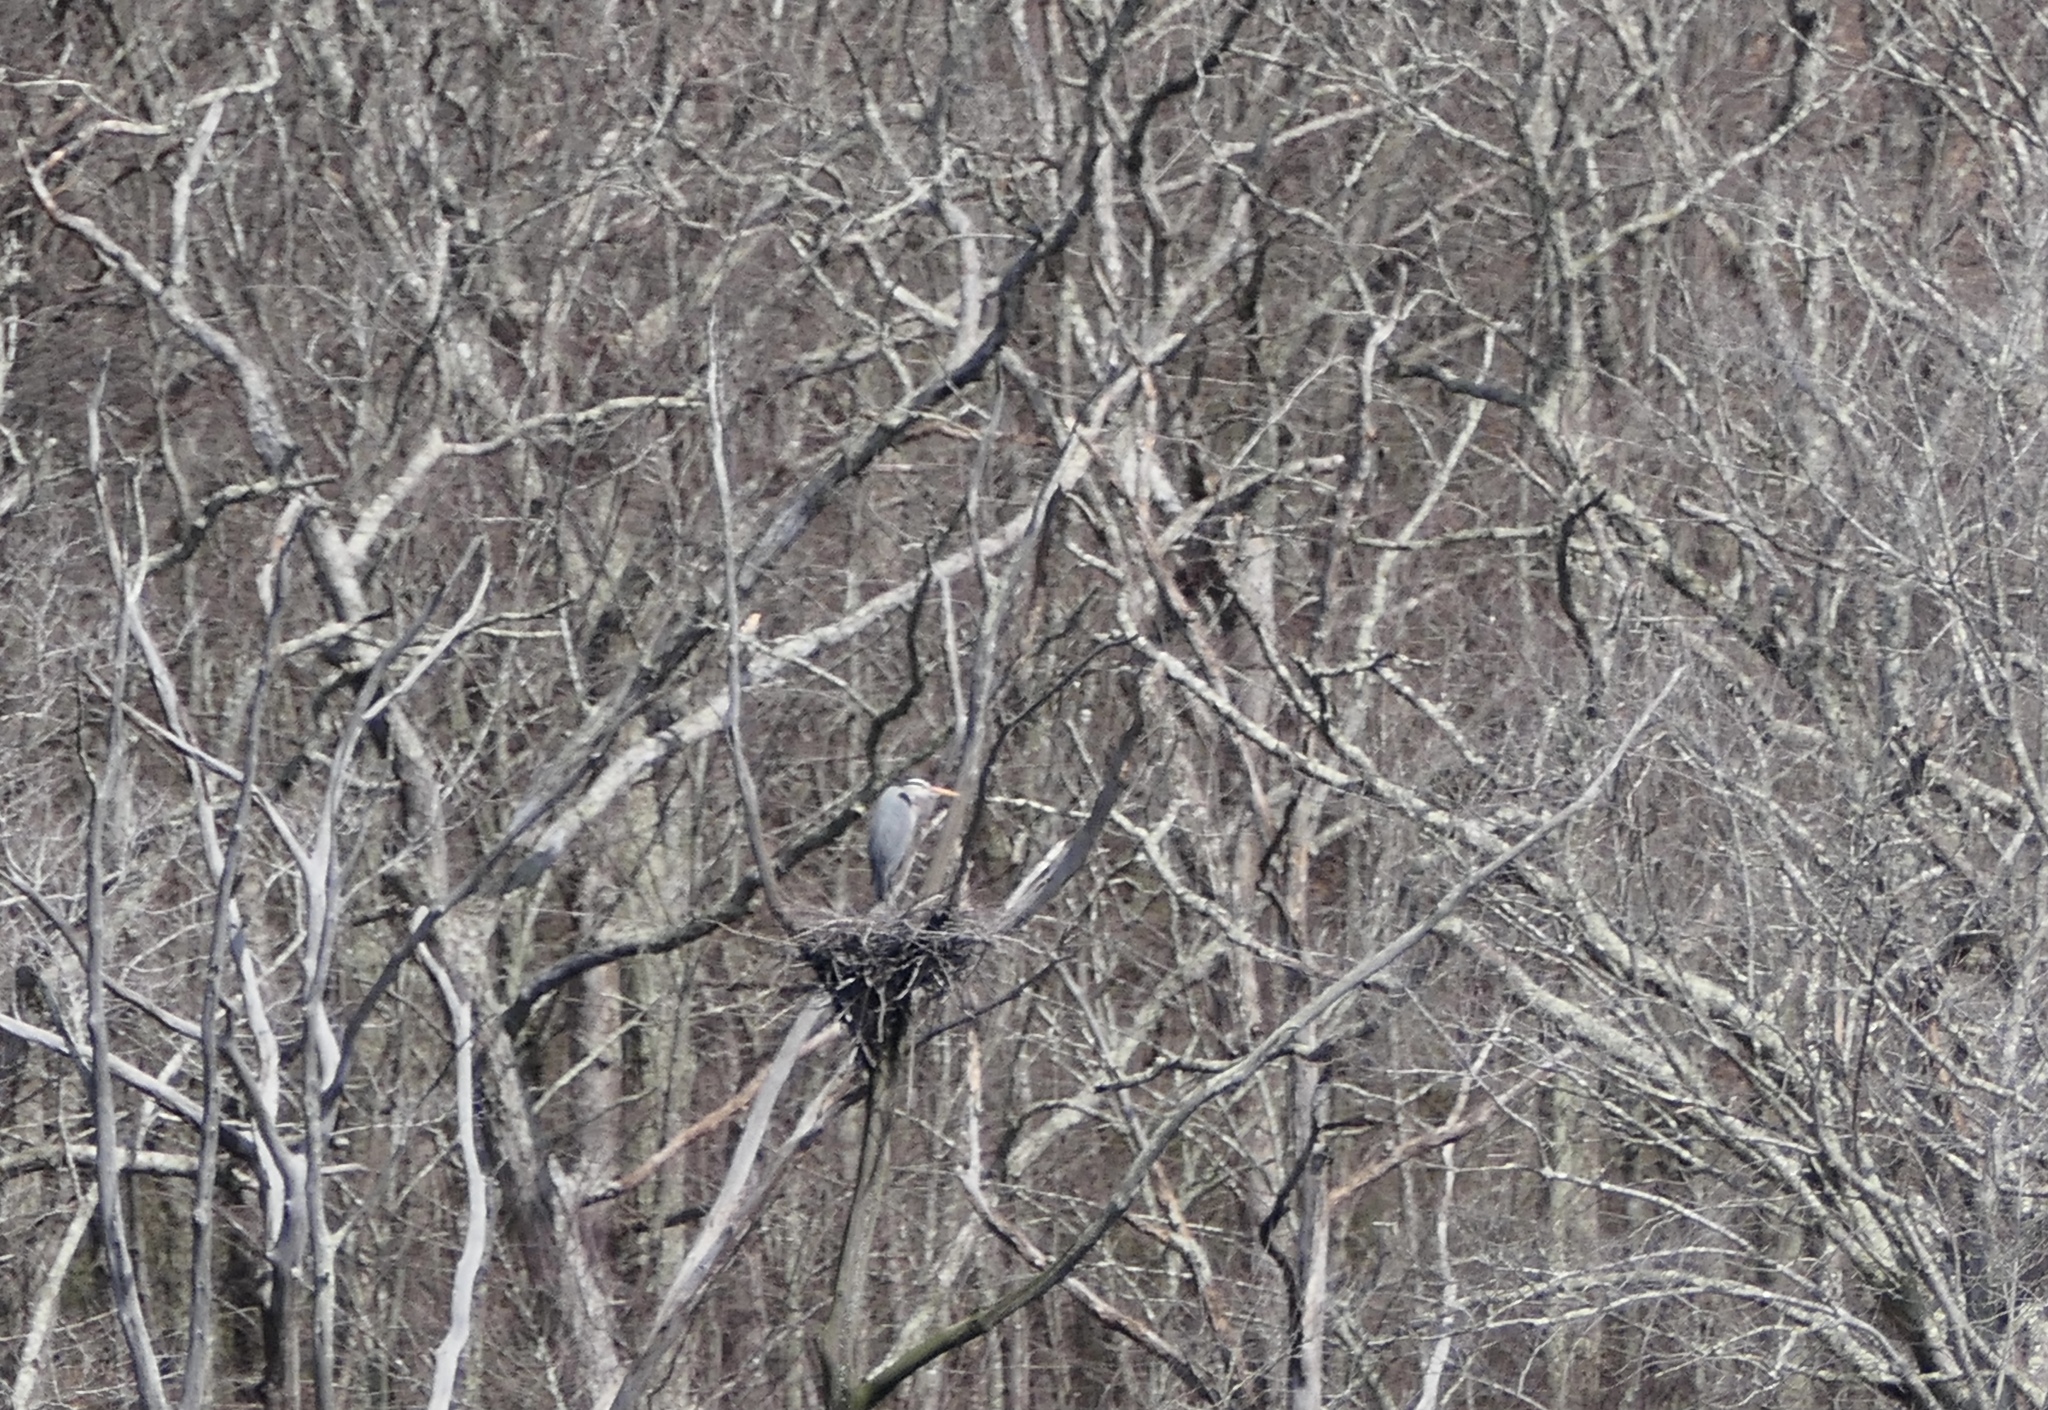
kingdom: Animalia
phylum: Chordata
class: Aves
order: Pelecaniformes
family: Ardeidae
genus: Ardea
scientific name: Ardea herodias
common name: Great blue heron
